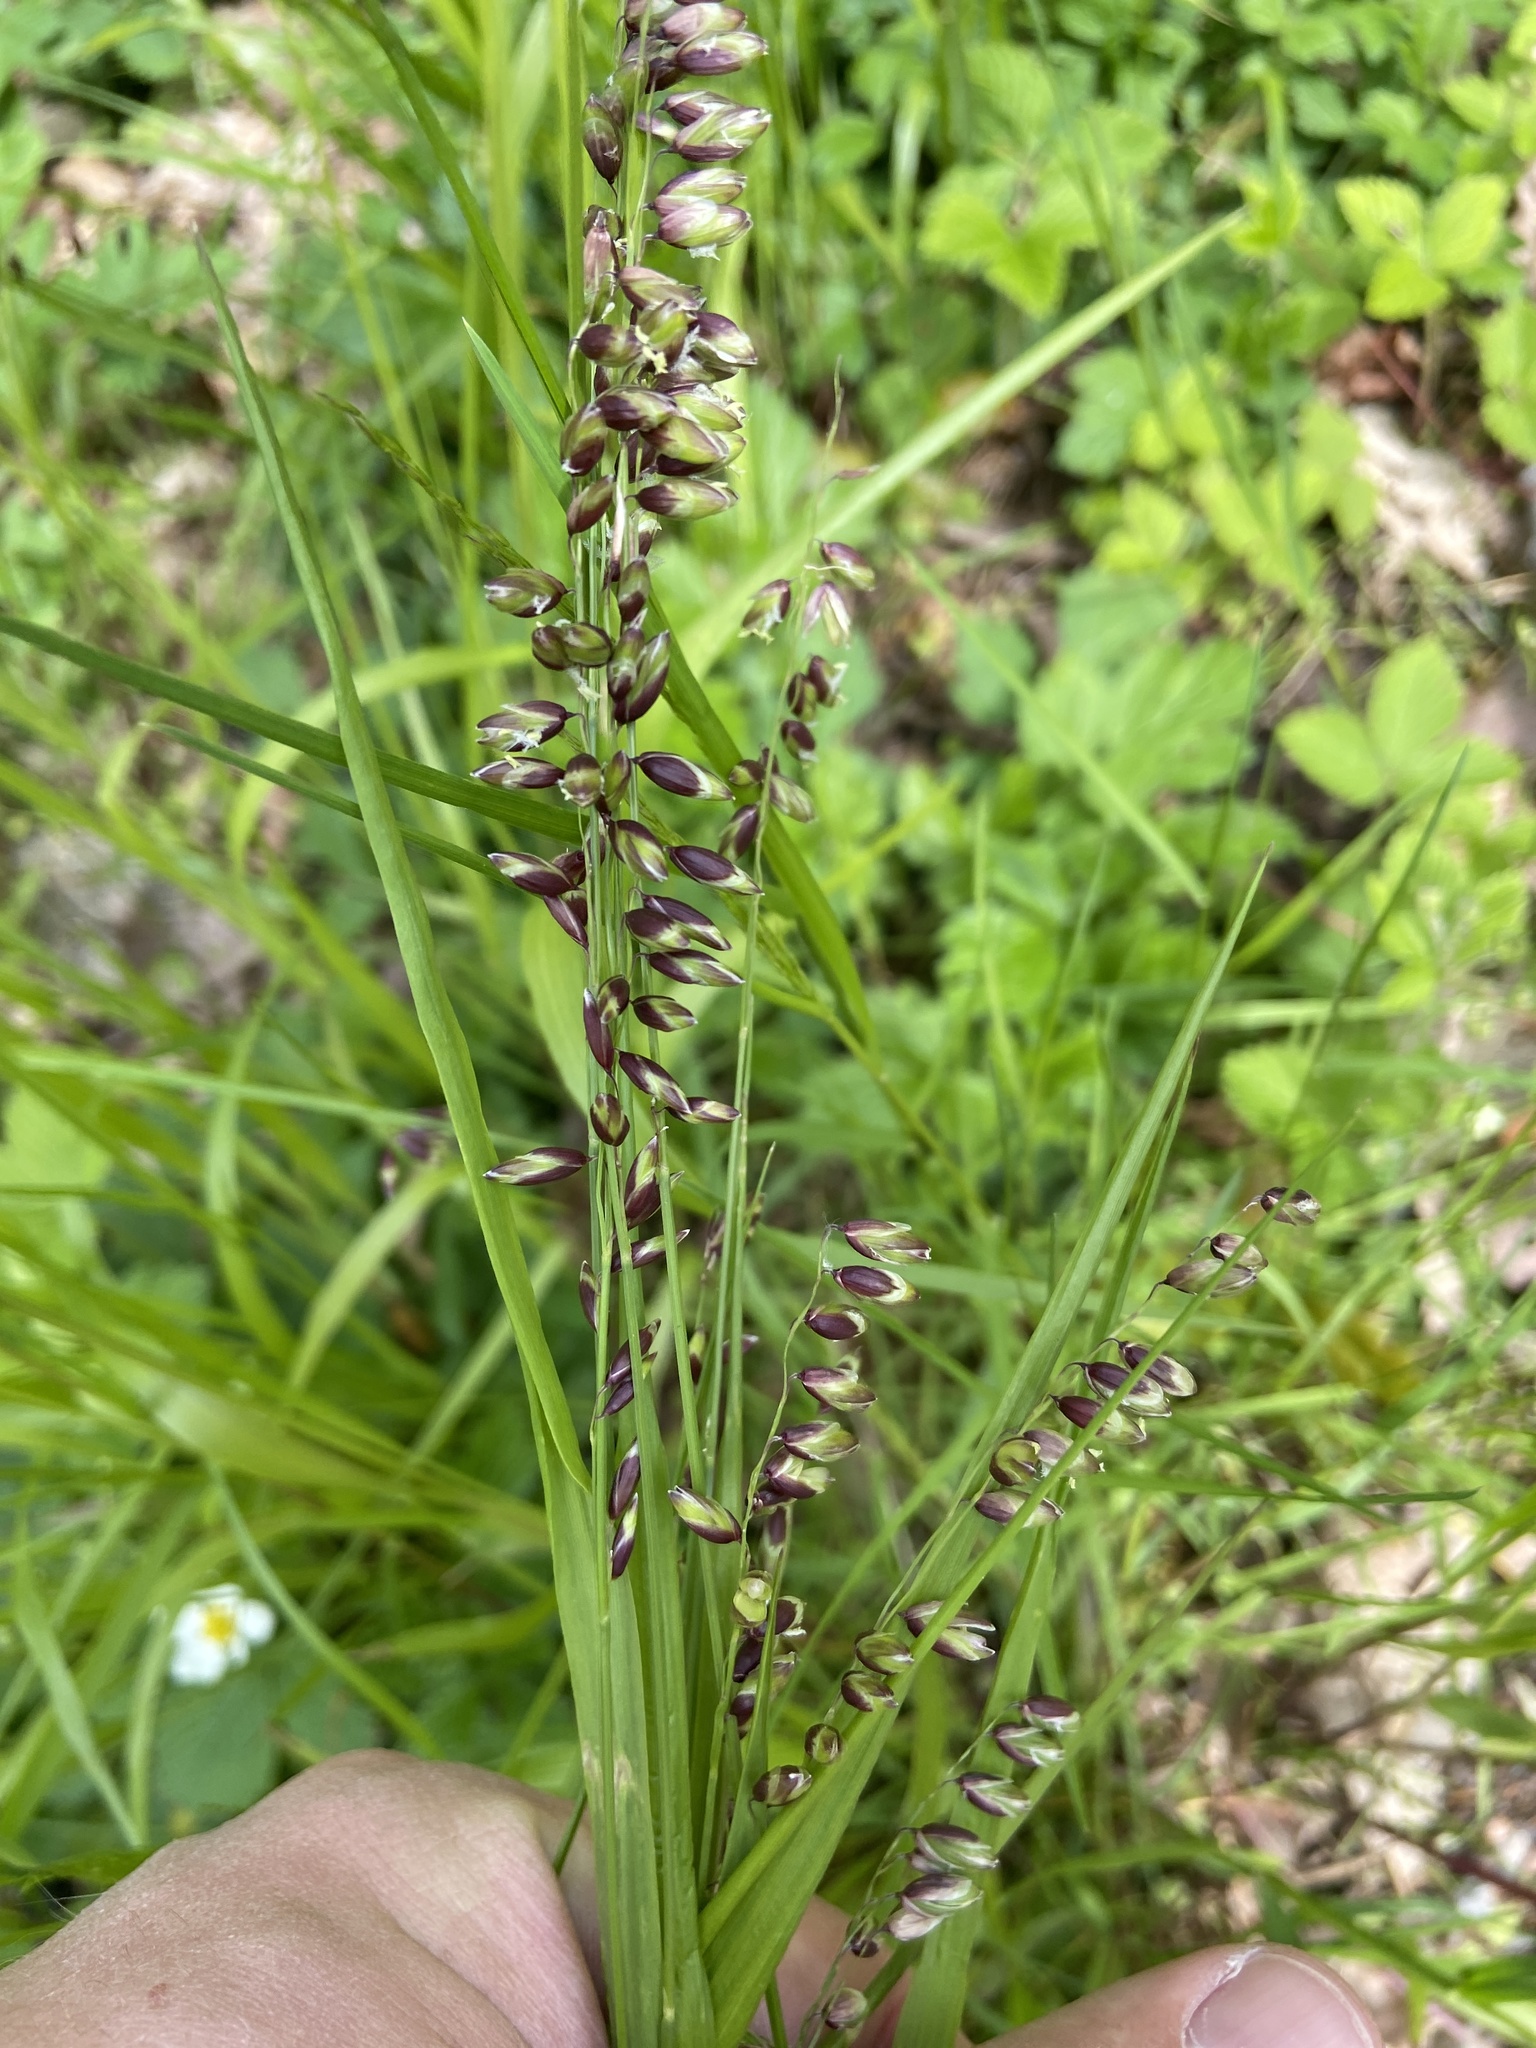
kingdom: Plantae
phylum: Tracheophyta
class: Liliopsida
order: Poales
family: Poaceae
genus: Melica
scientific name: Melica nutans
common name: Mountain melick
